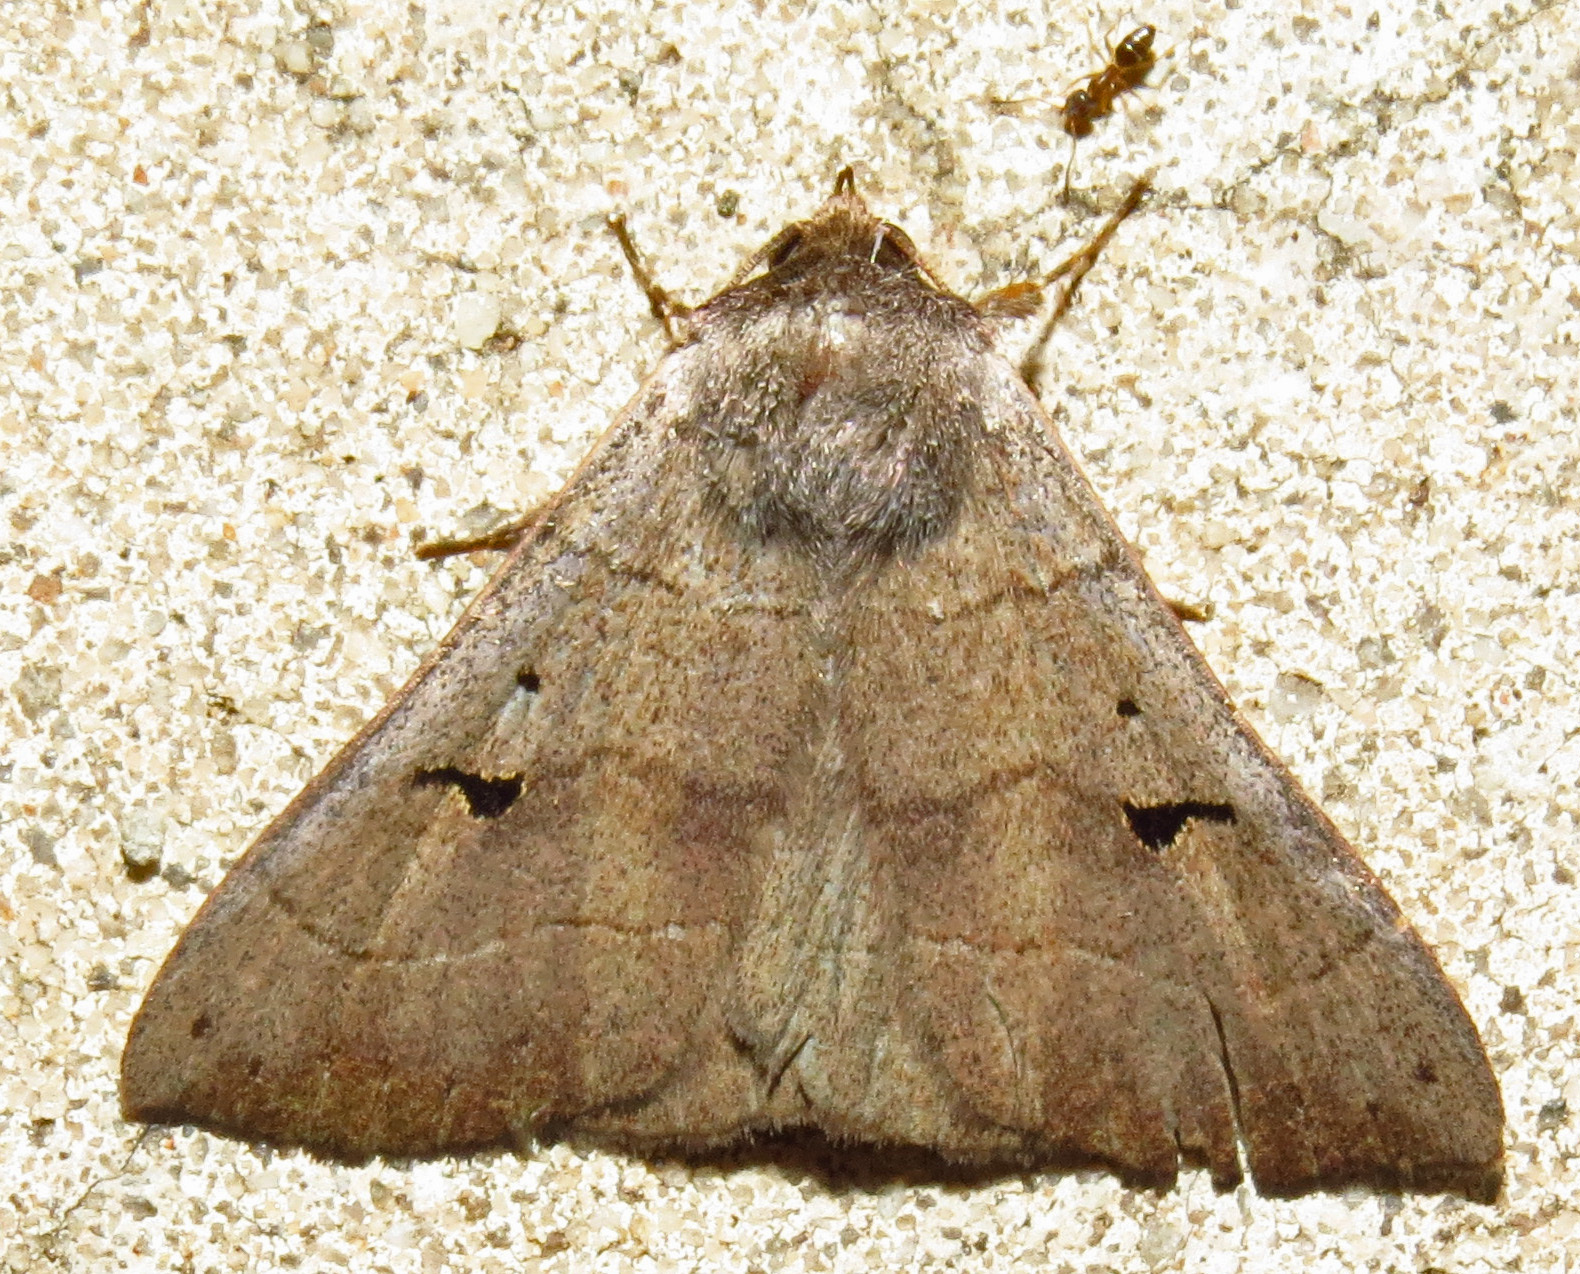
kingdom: Animalia
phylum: Arthropoda
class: Insecta
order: Lepidoptera
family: Erebidae
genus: Panopoda
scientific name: Panopoda carneicosta
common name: Brown panopoda moth
